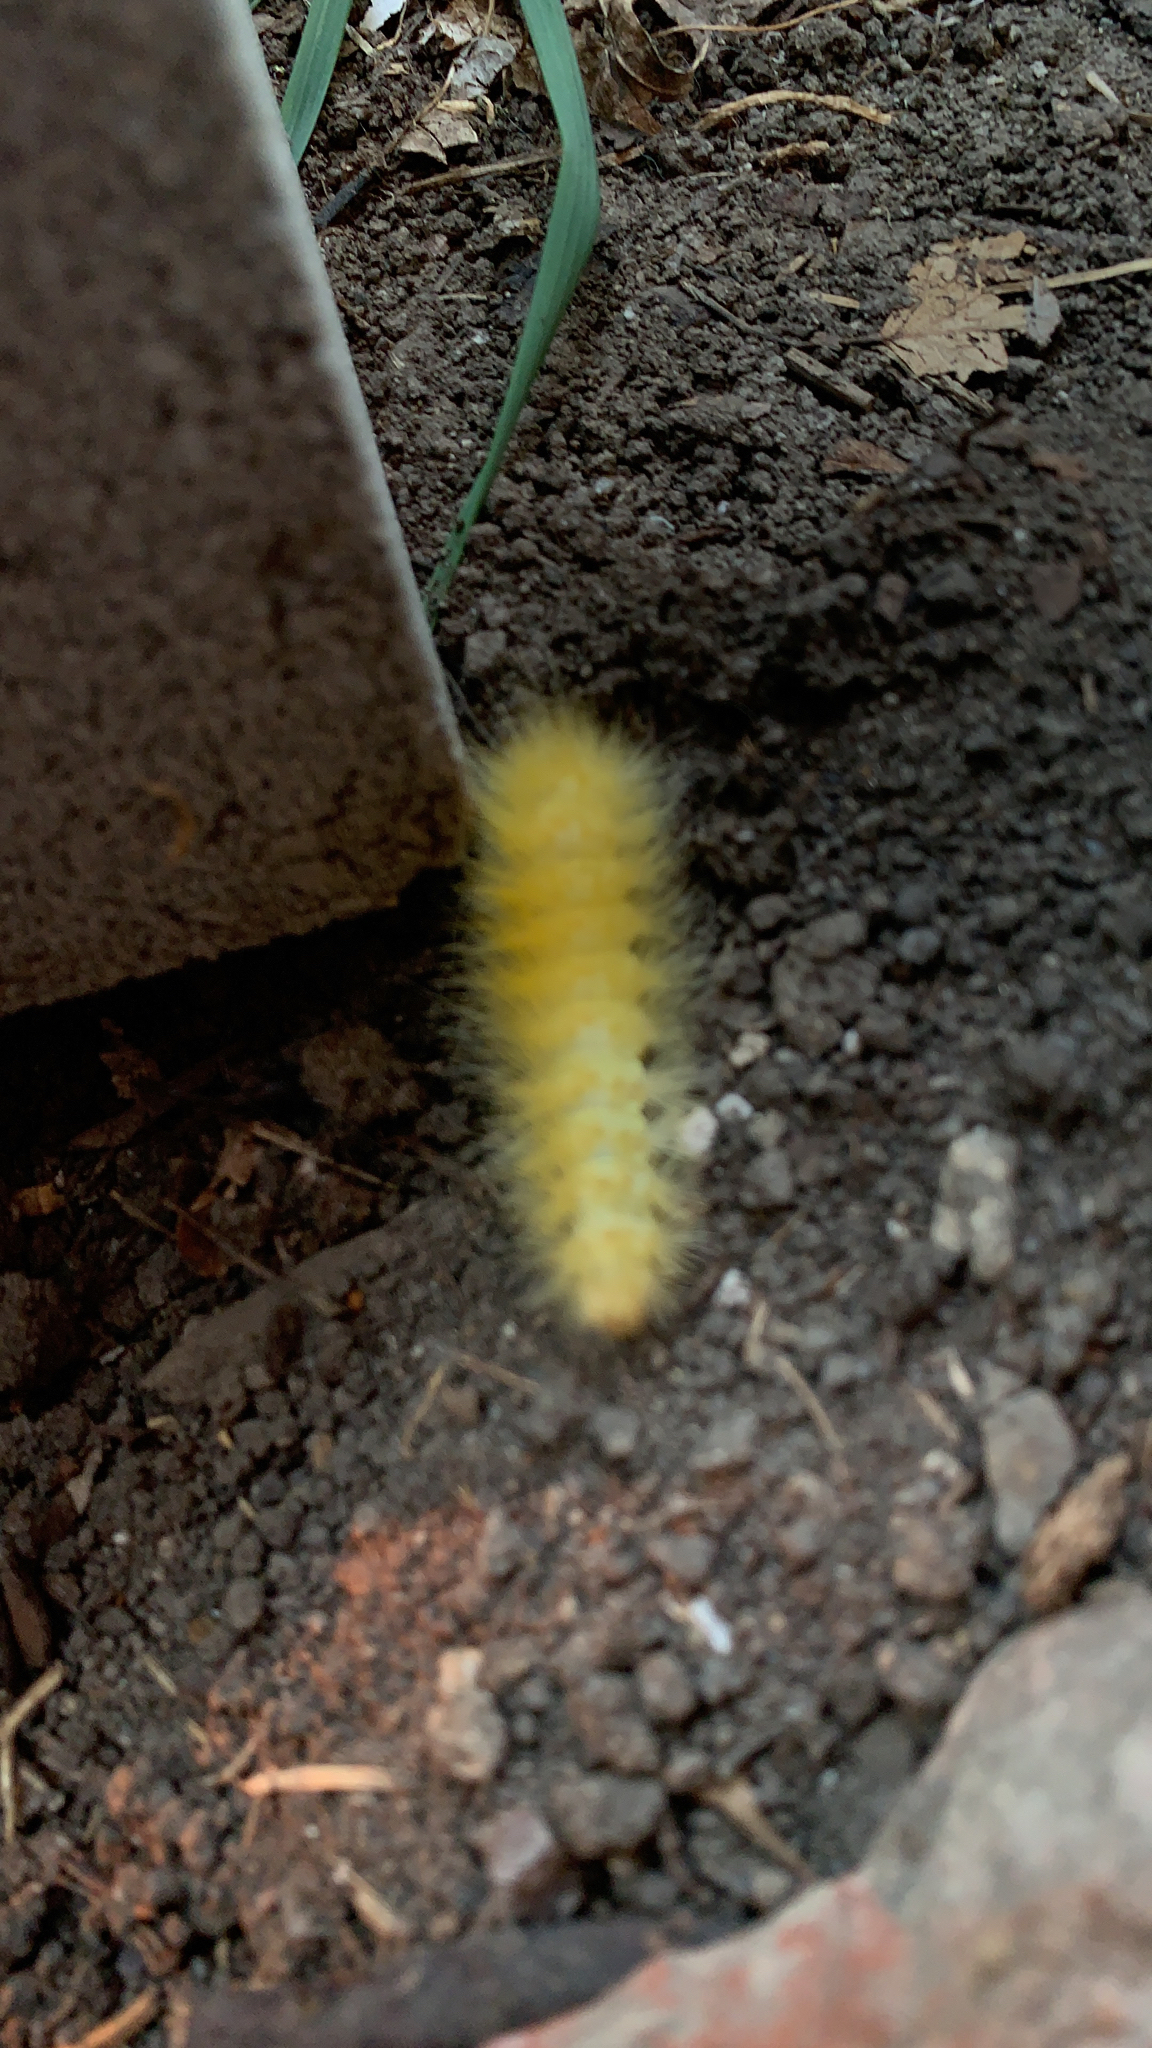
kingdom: Animalia
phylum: Arthropoda
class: Insecta
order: Lepidoptera
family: Erebidae
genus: Spilosoma
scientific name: Spilosoma virginica
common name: Virginia tiger moth
